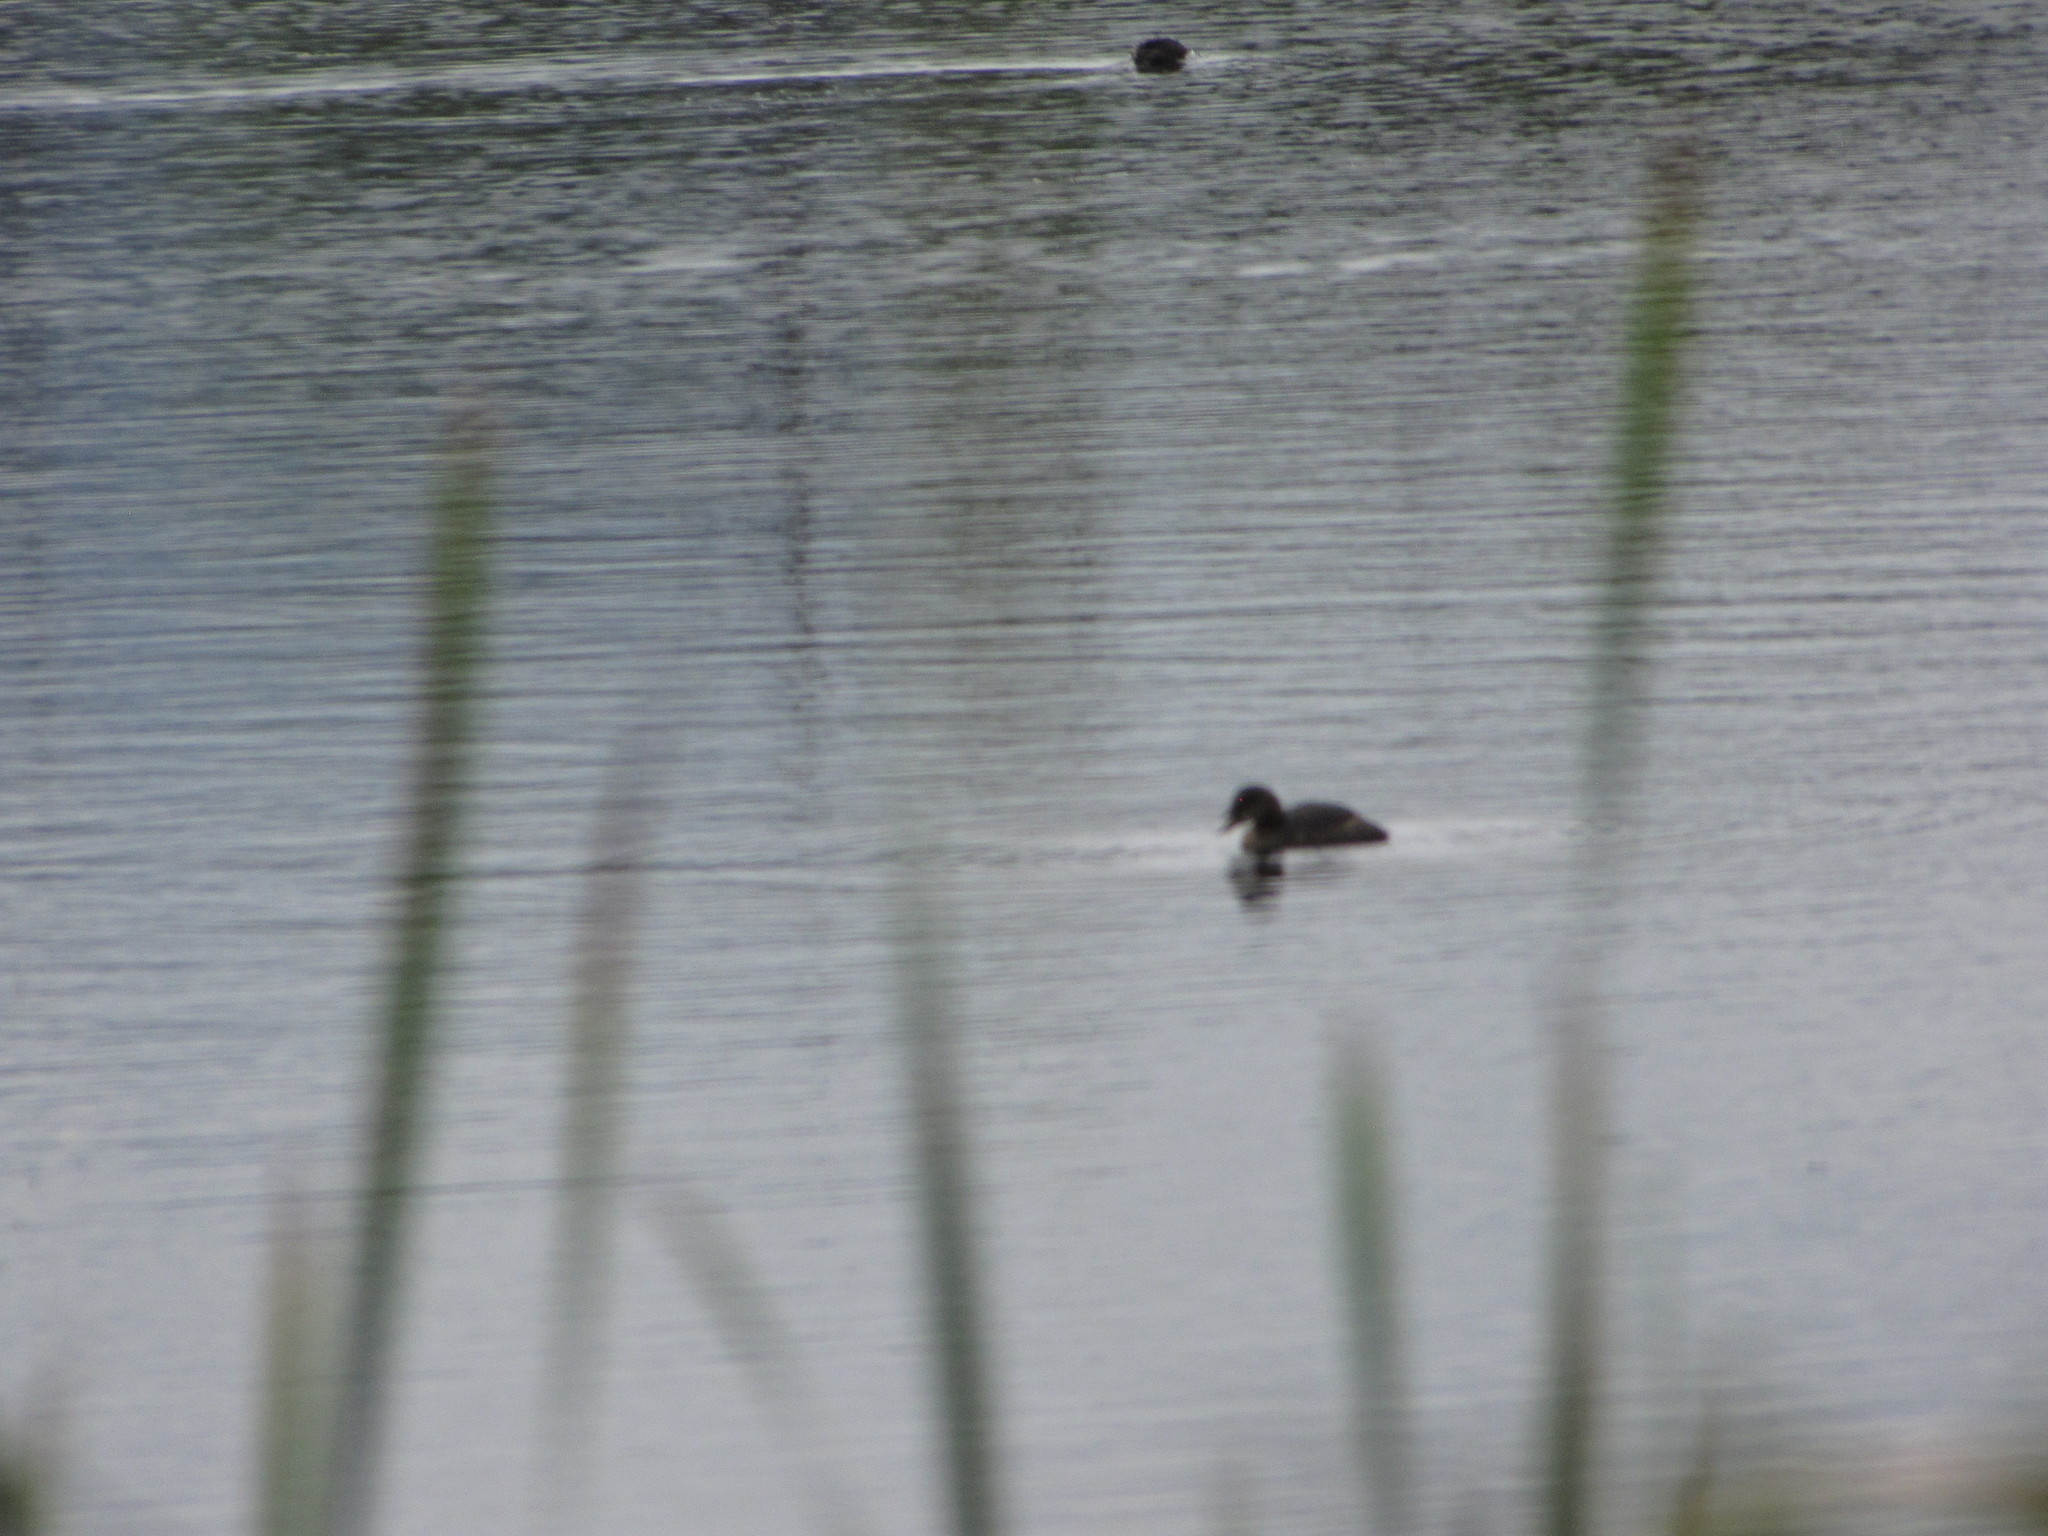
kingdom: Animalia
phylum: Chordata
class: Aves
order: Podicipediformes
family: Podicipedidae
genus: Podilymbus
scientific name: Podilymbus podiceps
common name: Pied-billed grebe
